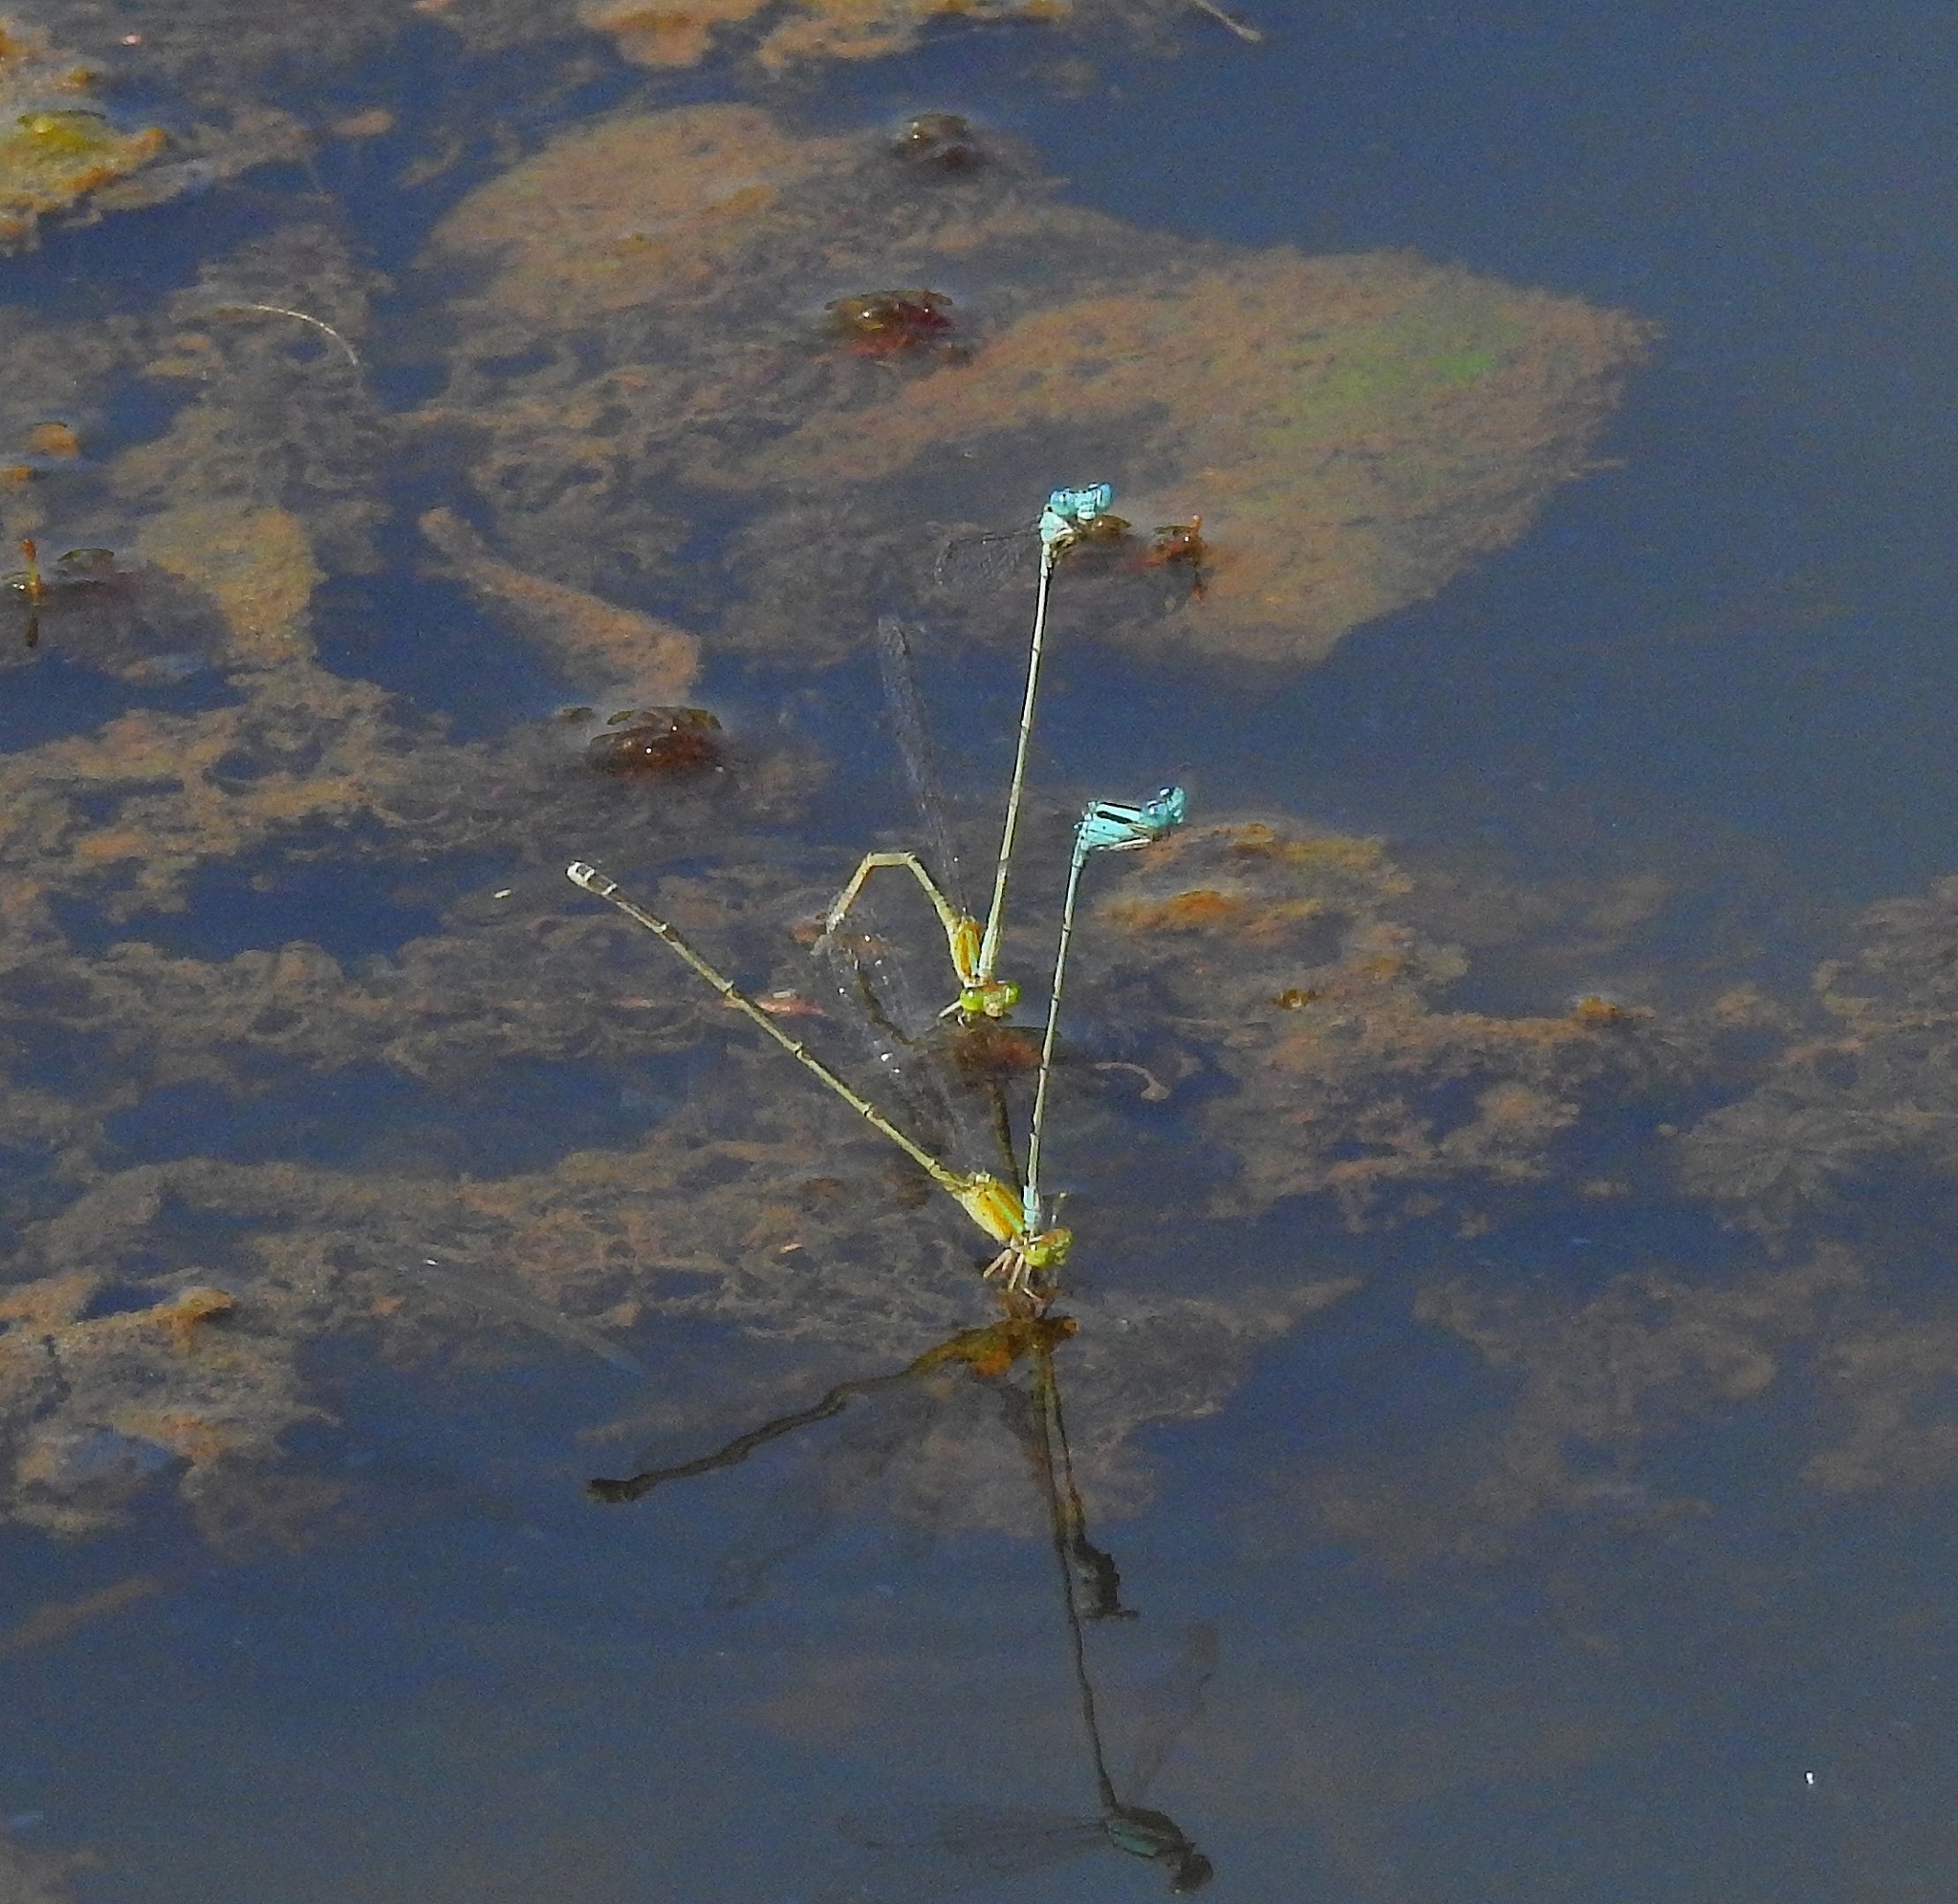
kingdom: Animalia
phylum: Arthropoda
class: Insecta
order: Odonata
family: Coenagrionidae
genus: Pseudagrion
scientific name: Pseudagrion microcephalum
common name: Blue riverdamsel
